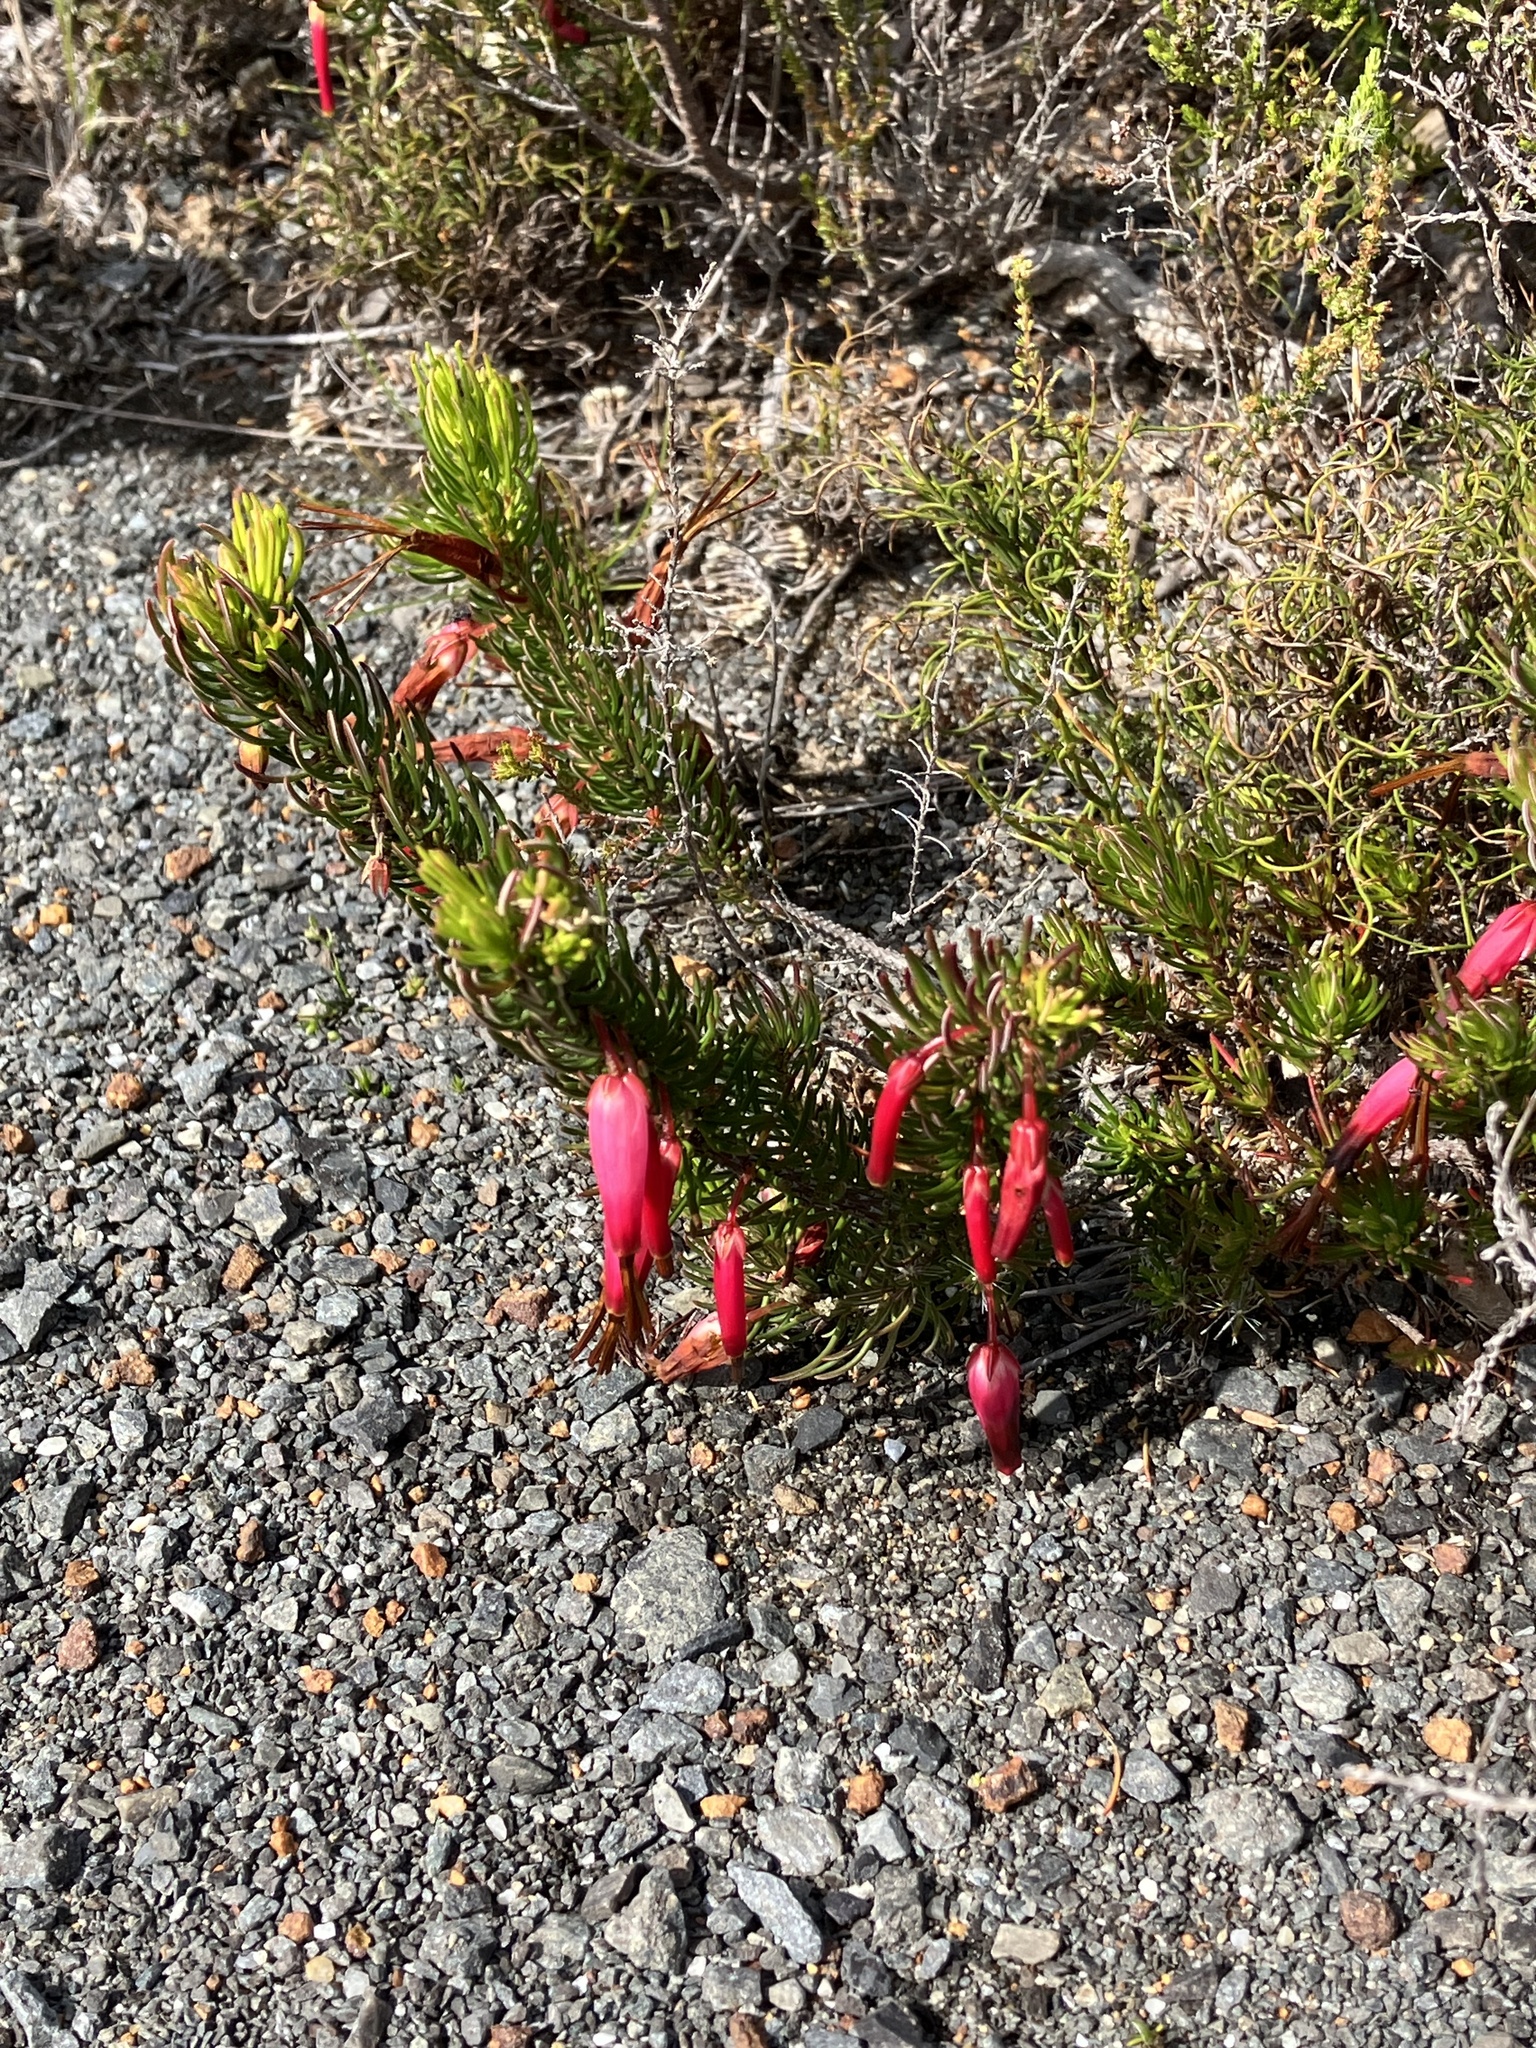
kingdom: Plantae
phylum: Tracheophyta
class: Magnoliopsida
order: Ericales
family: Ericaceae
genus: Erica
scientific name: Erica plukenetii
